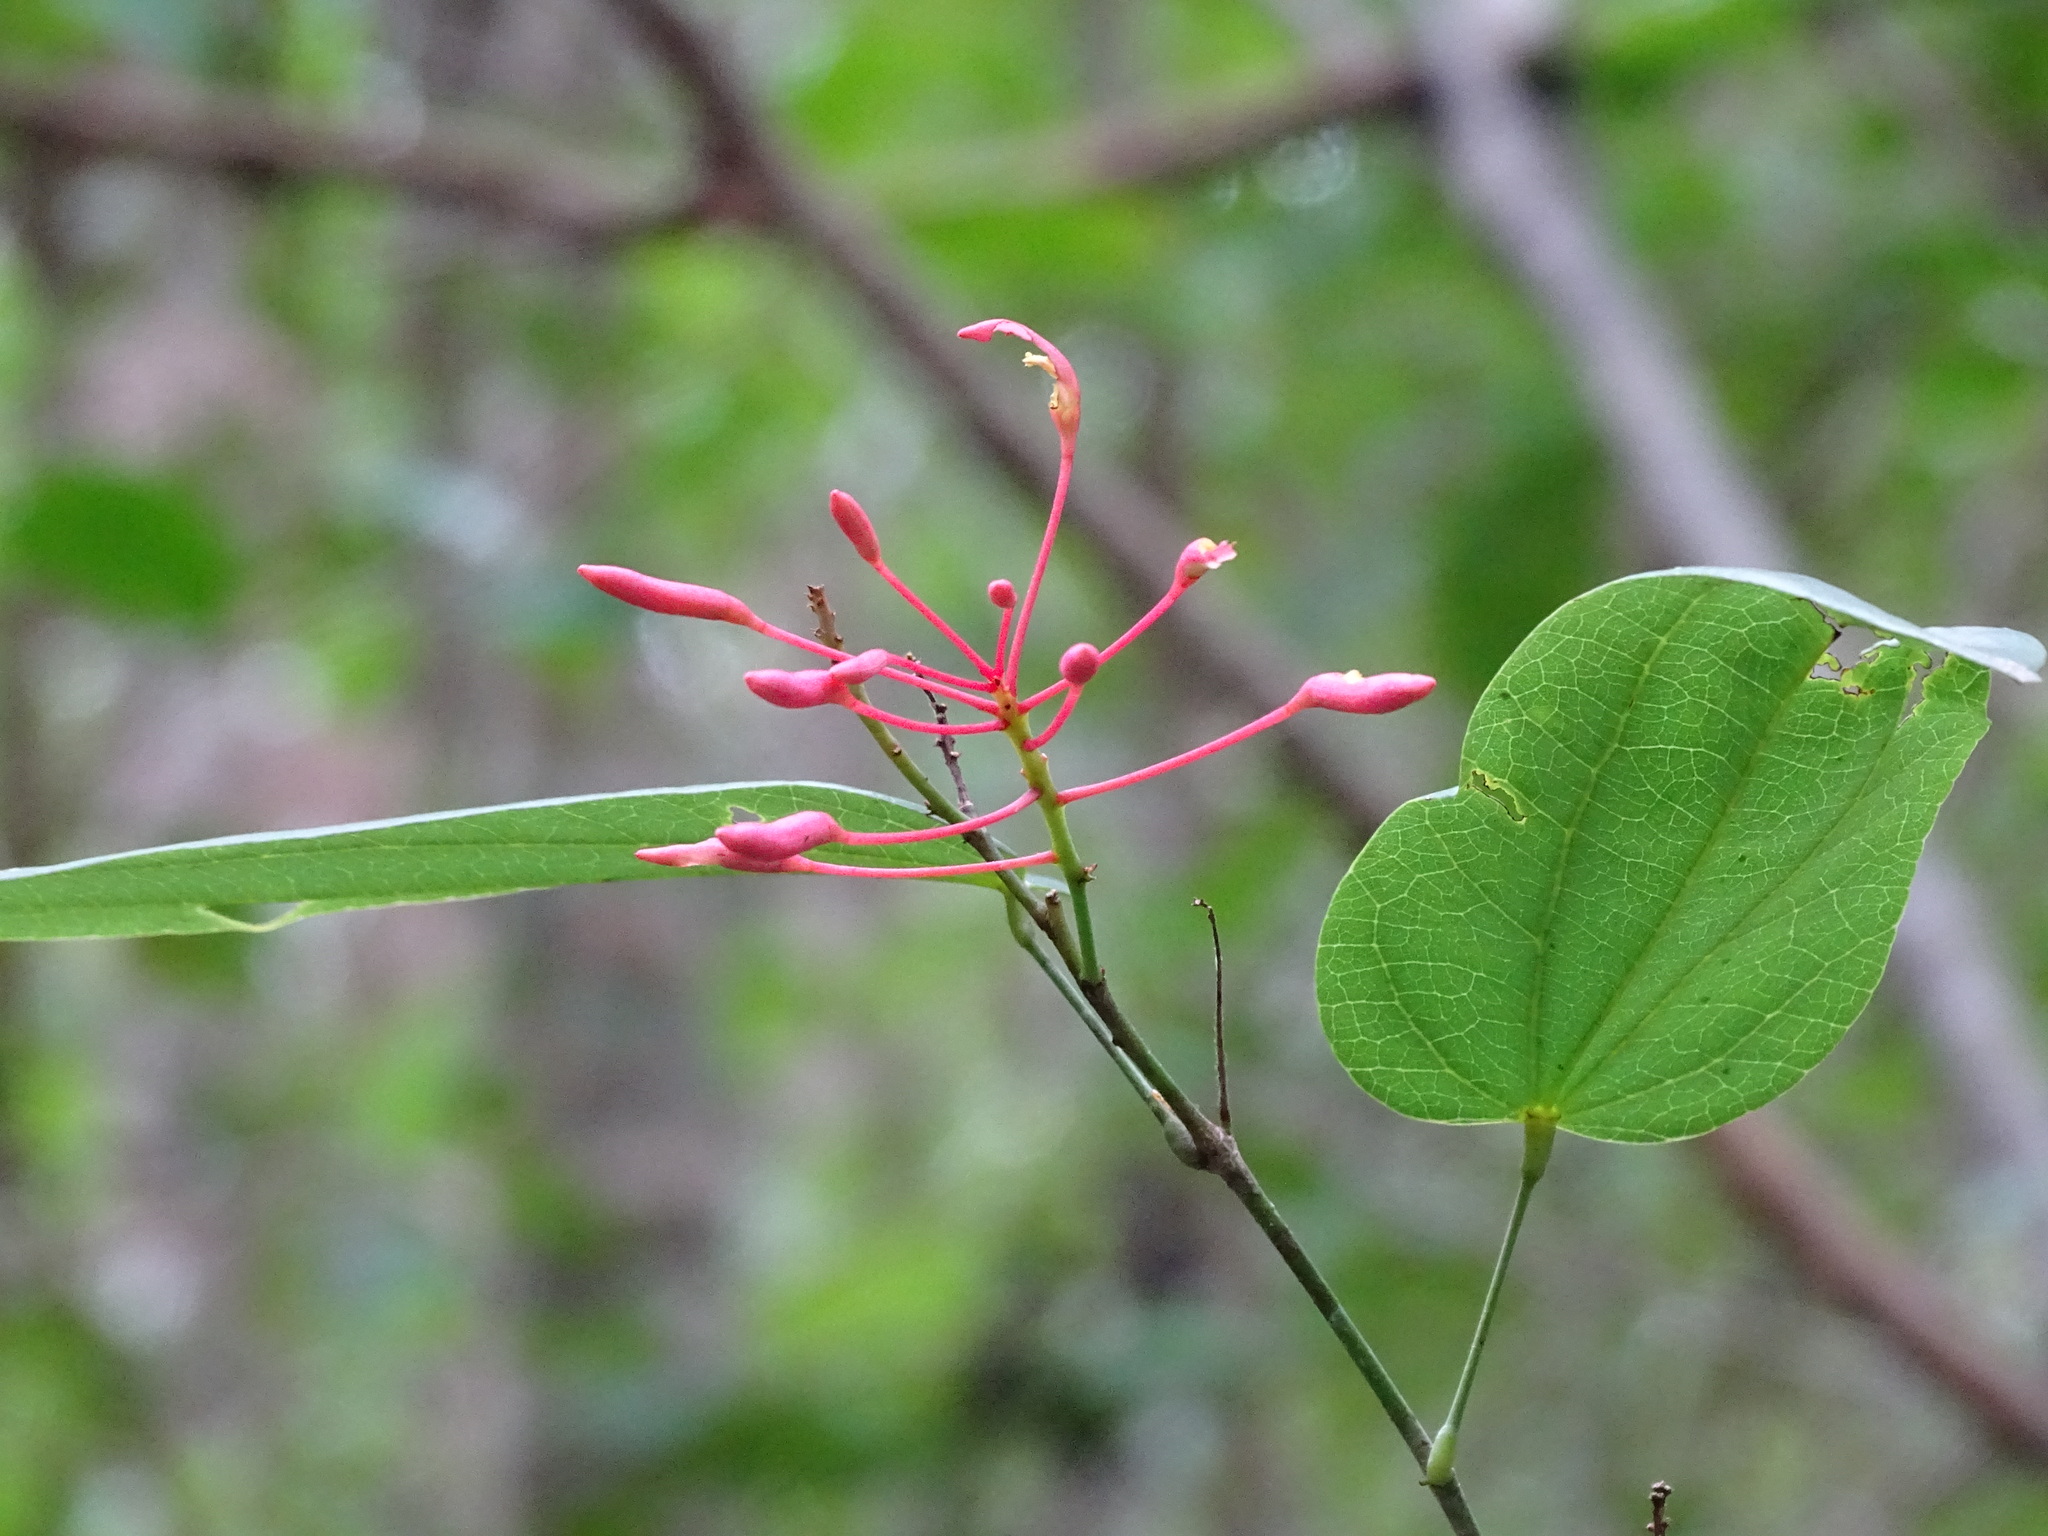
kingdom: Plantae
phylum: Tracheophyta
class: Magnoliopsida
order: Fabales
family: Fabaceae
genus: Bauhinia
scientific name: Bauhinia jenningsii
